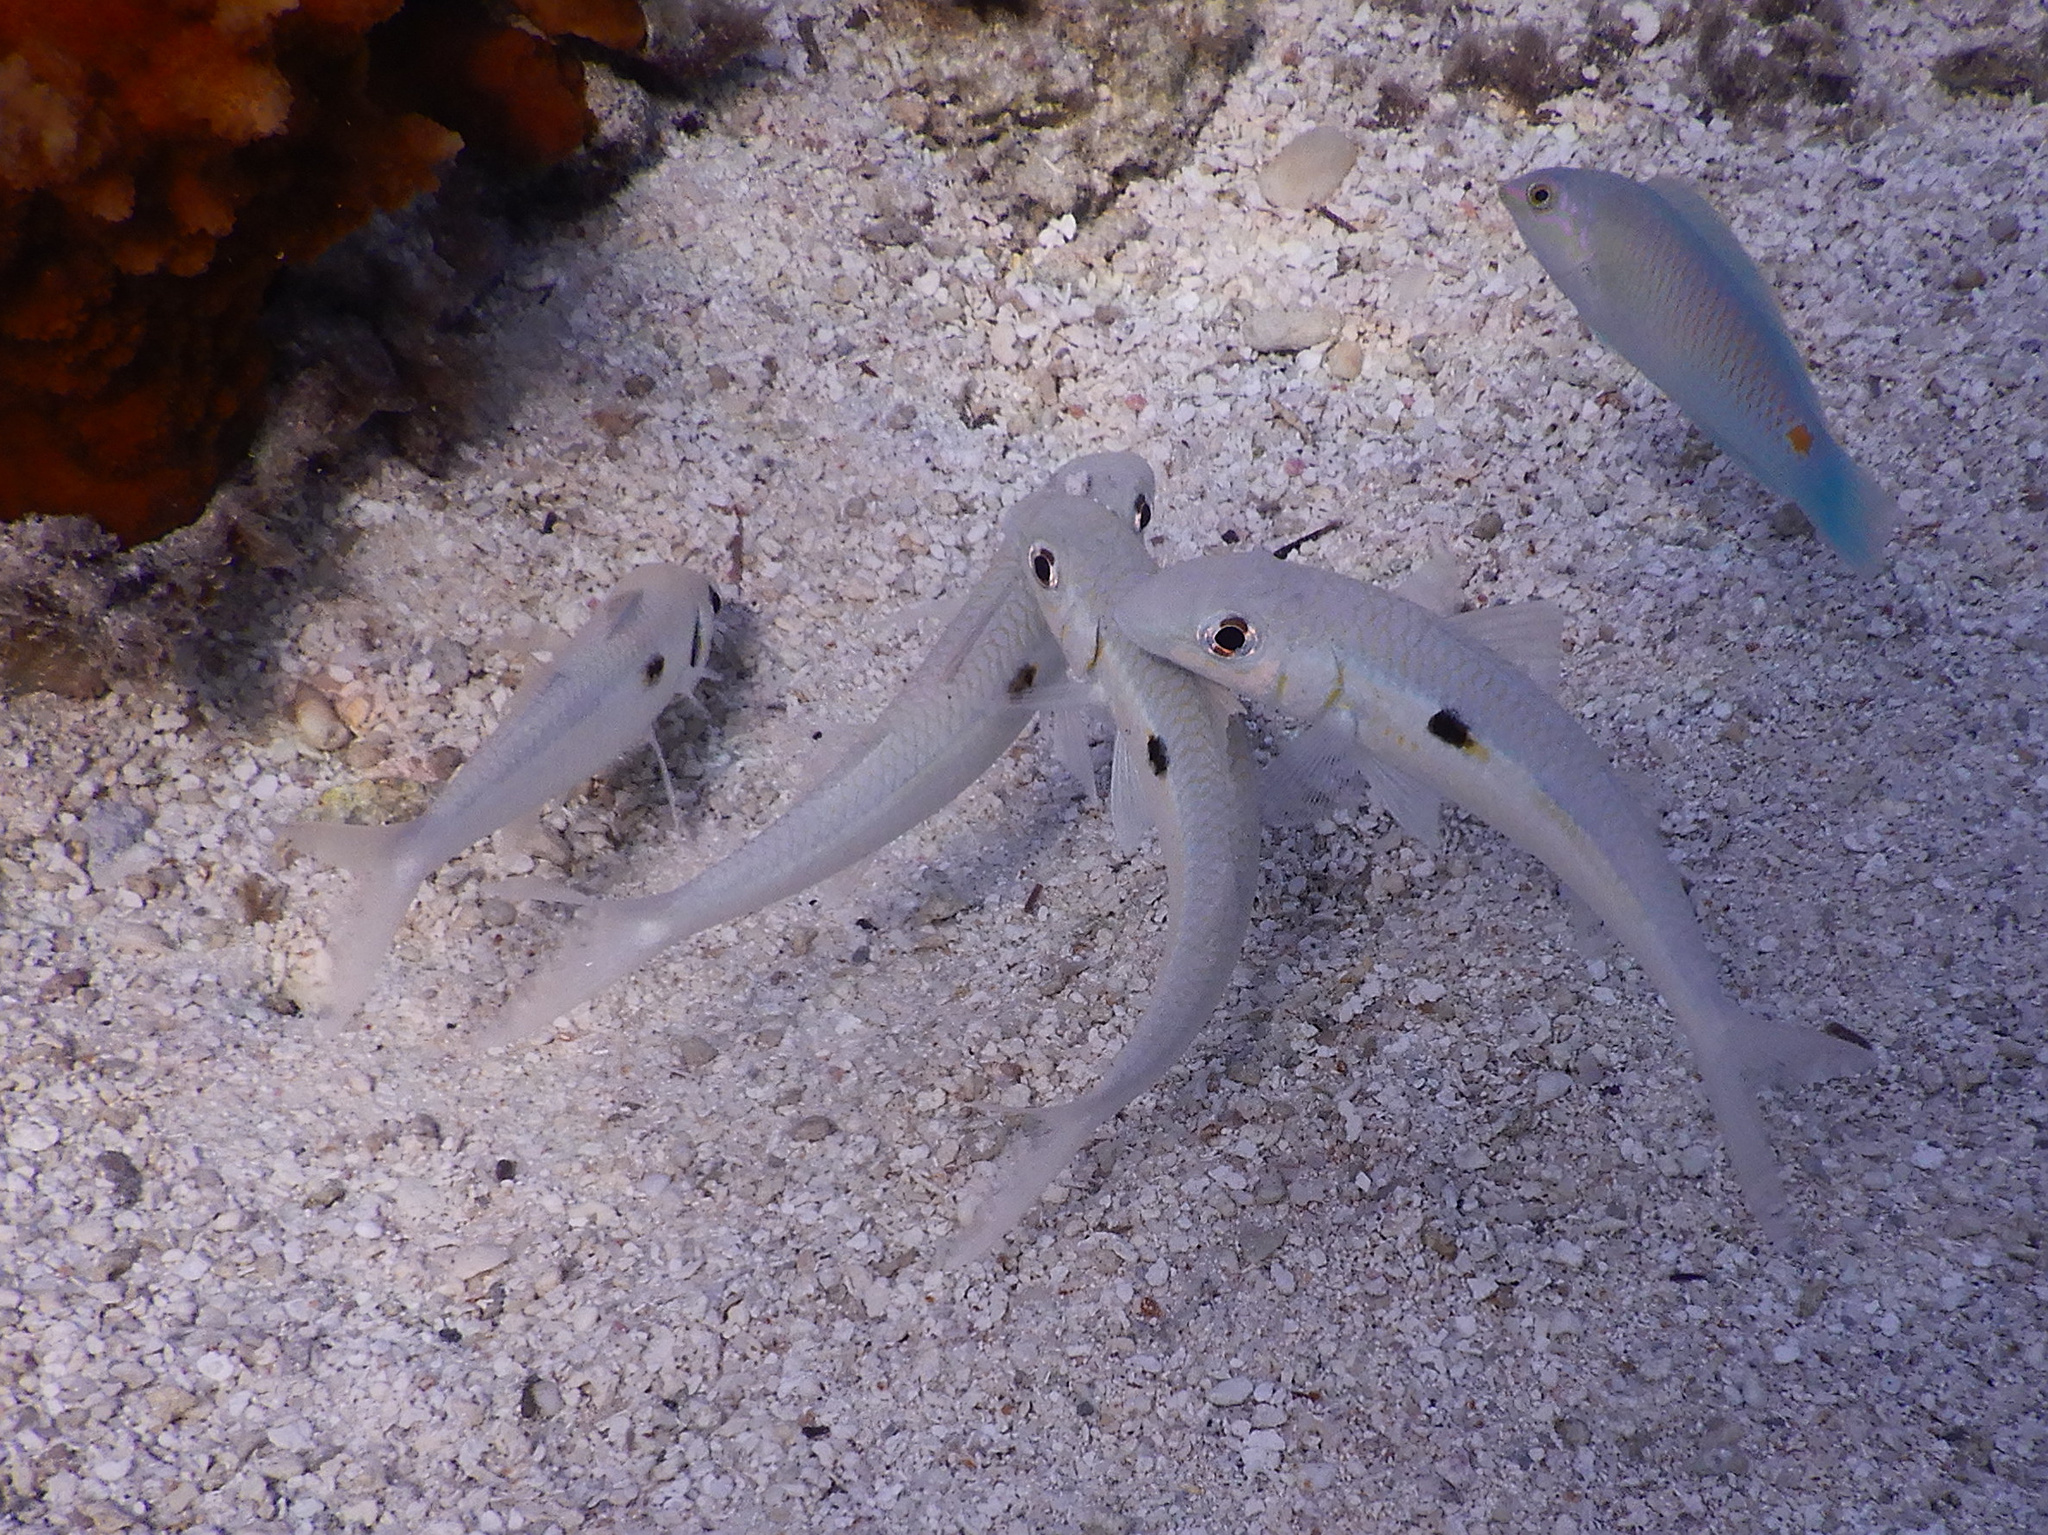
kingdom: Animalia
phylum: Chordata
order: Perciformes
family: Mullidae
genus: Mulloidichthys
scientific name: Mulloidichthys flavolineatus
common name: Yellowstripe goatfish
